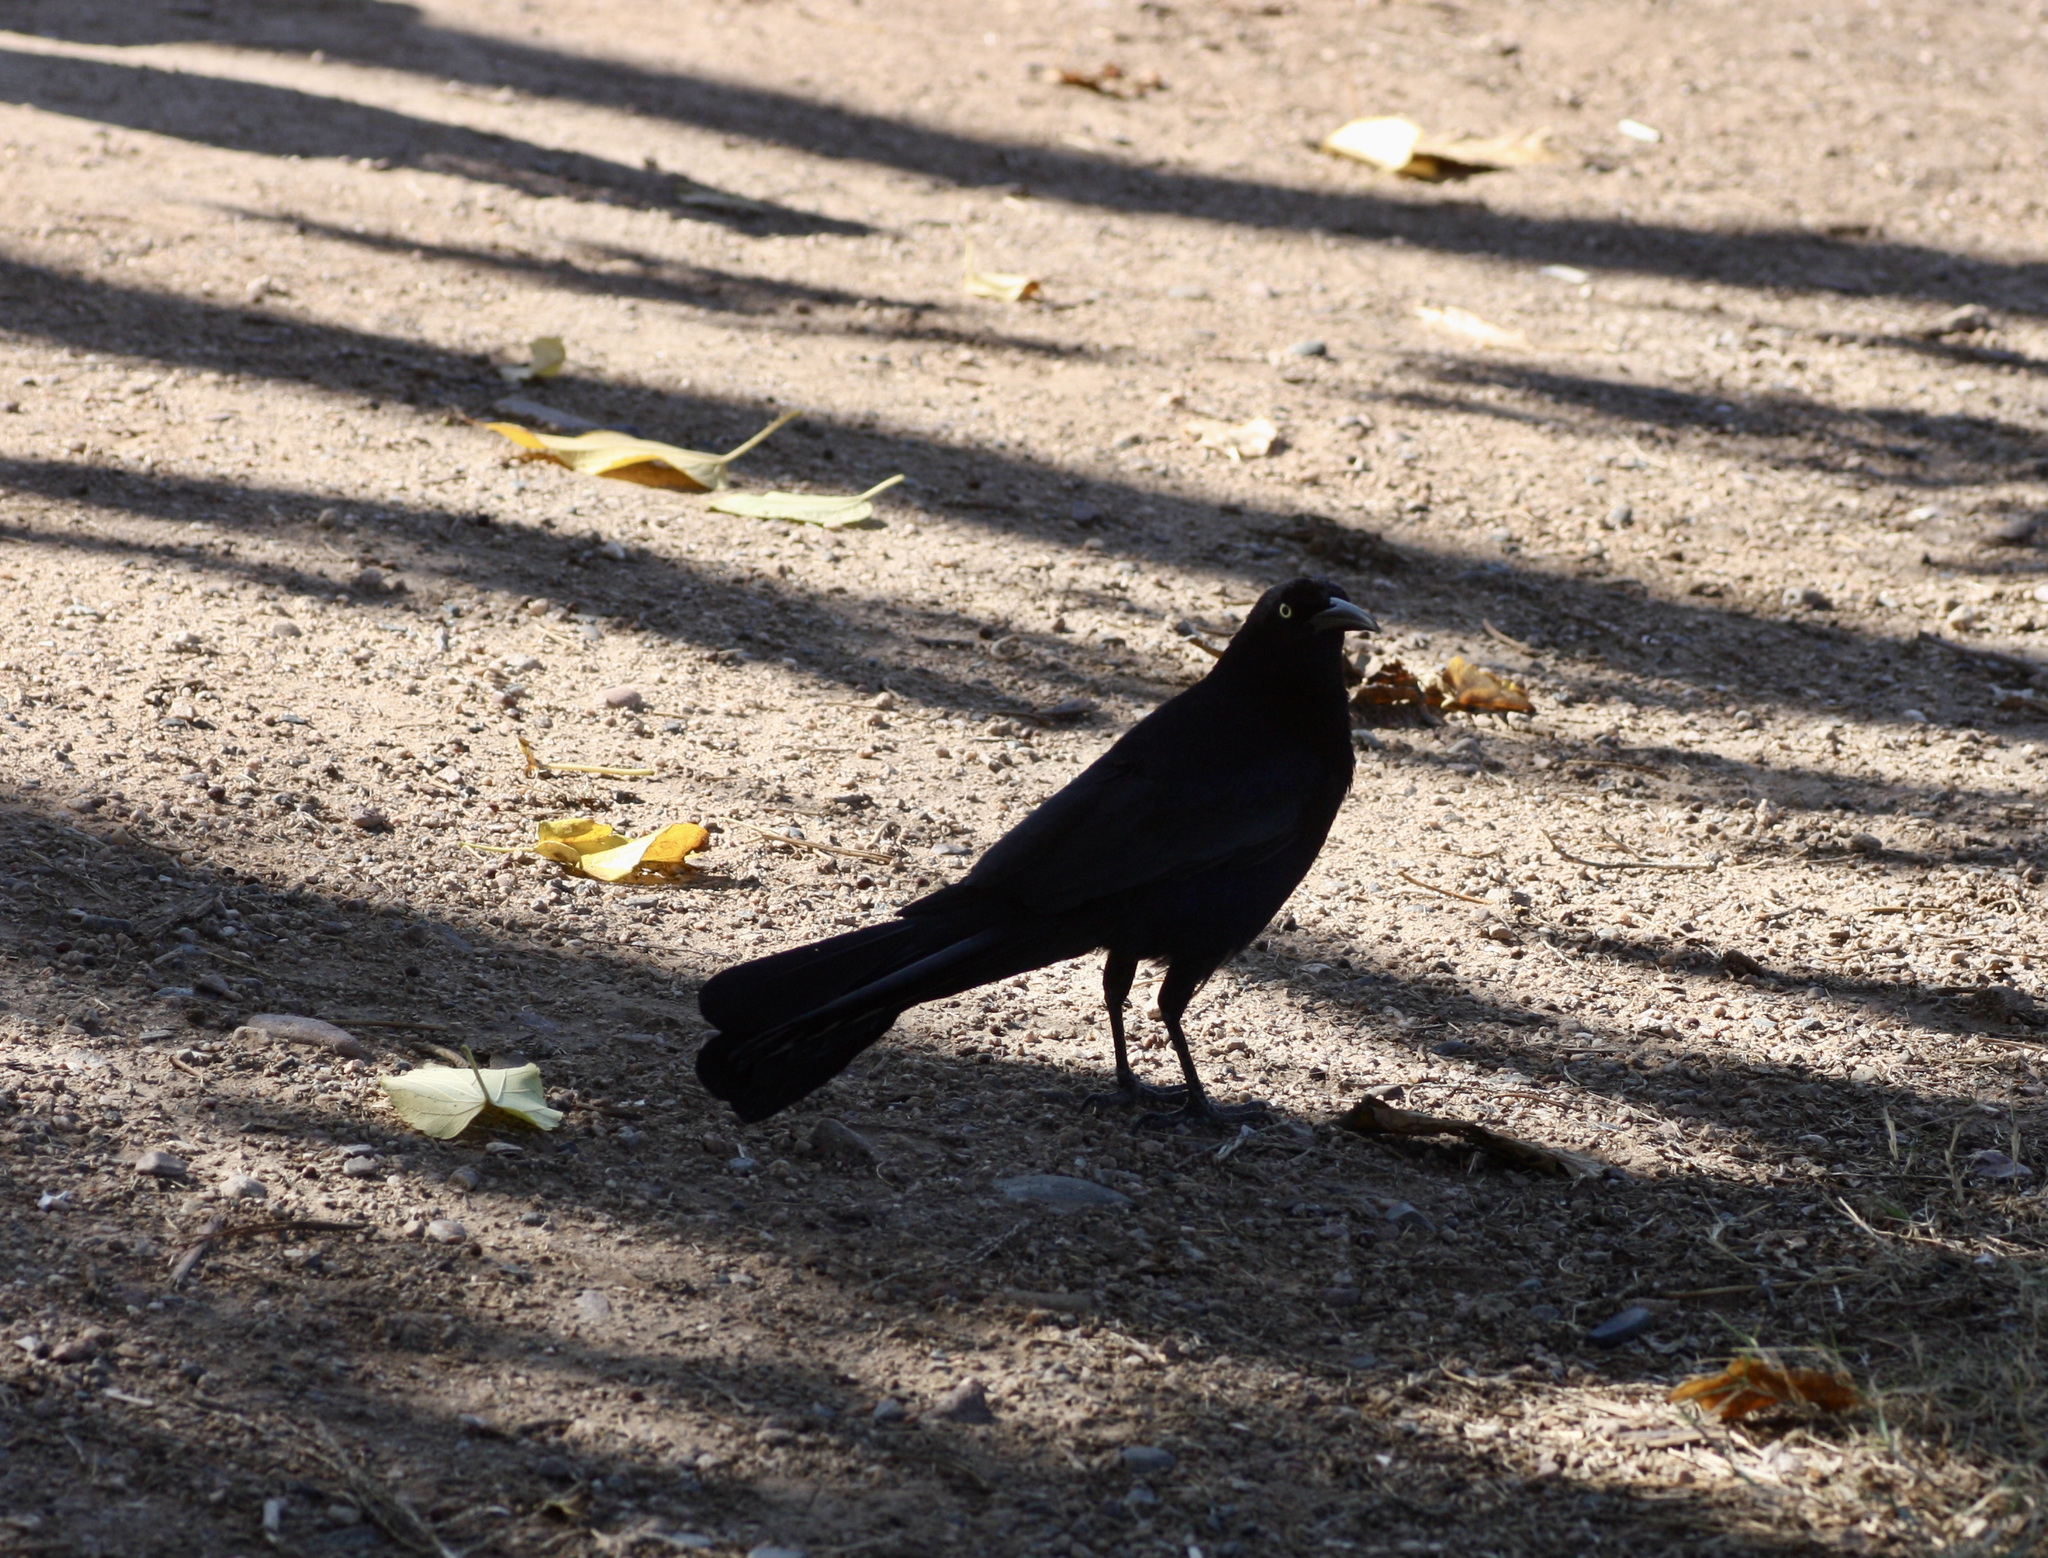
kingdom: Animalia
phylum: Chordata
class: Aves
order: Passeriformes
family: Icteridae
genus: Quiscalus
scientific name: Quiscalus mexicanus
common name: Great-tailed grackle
